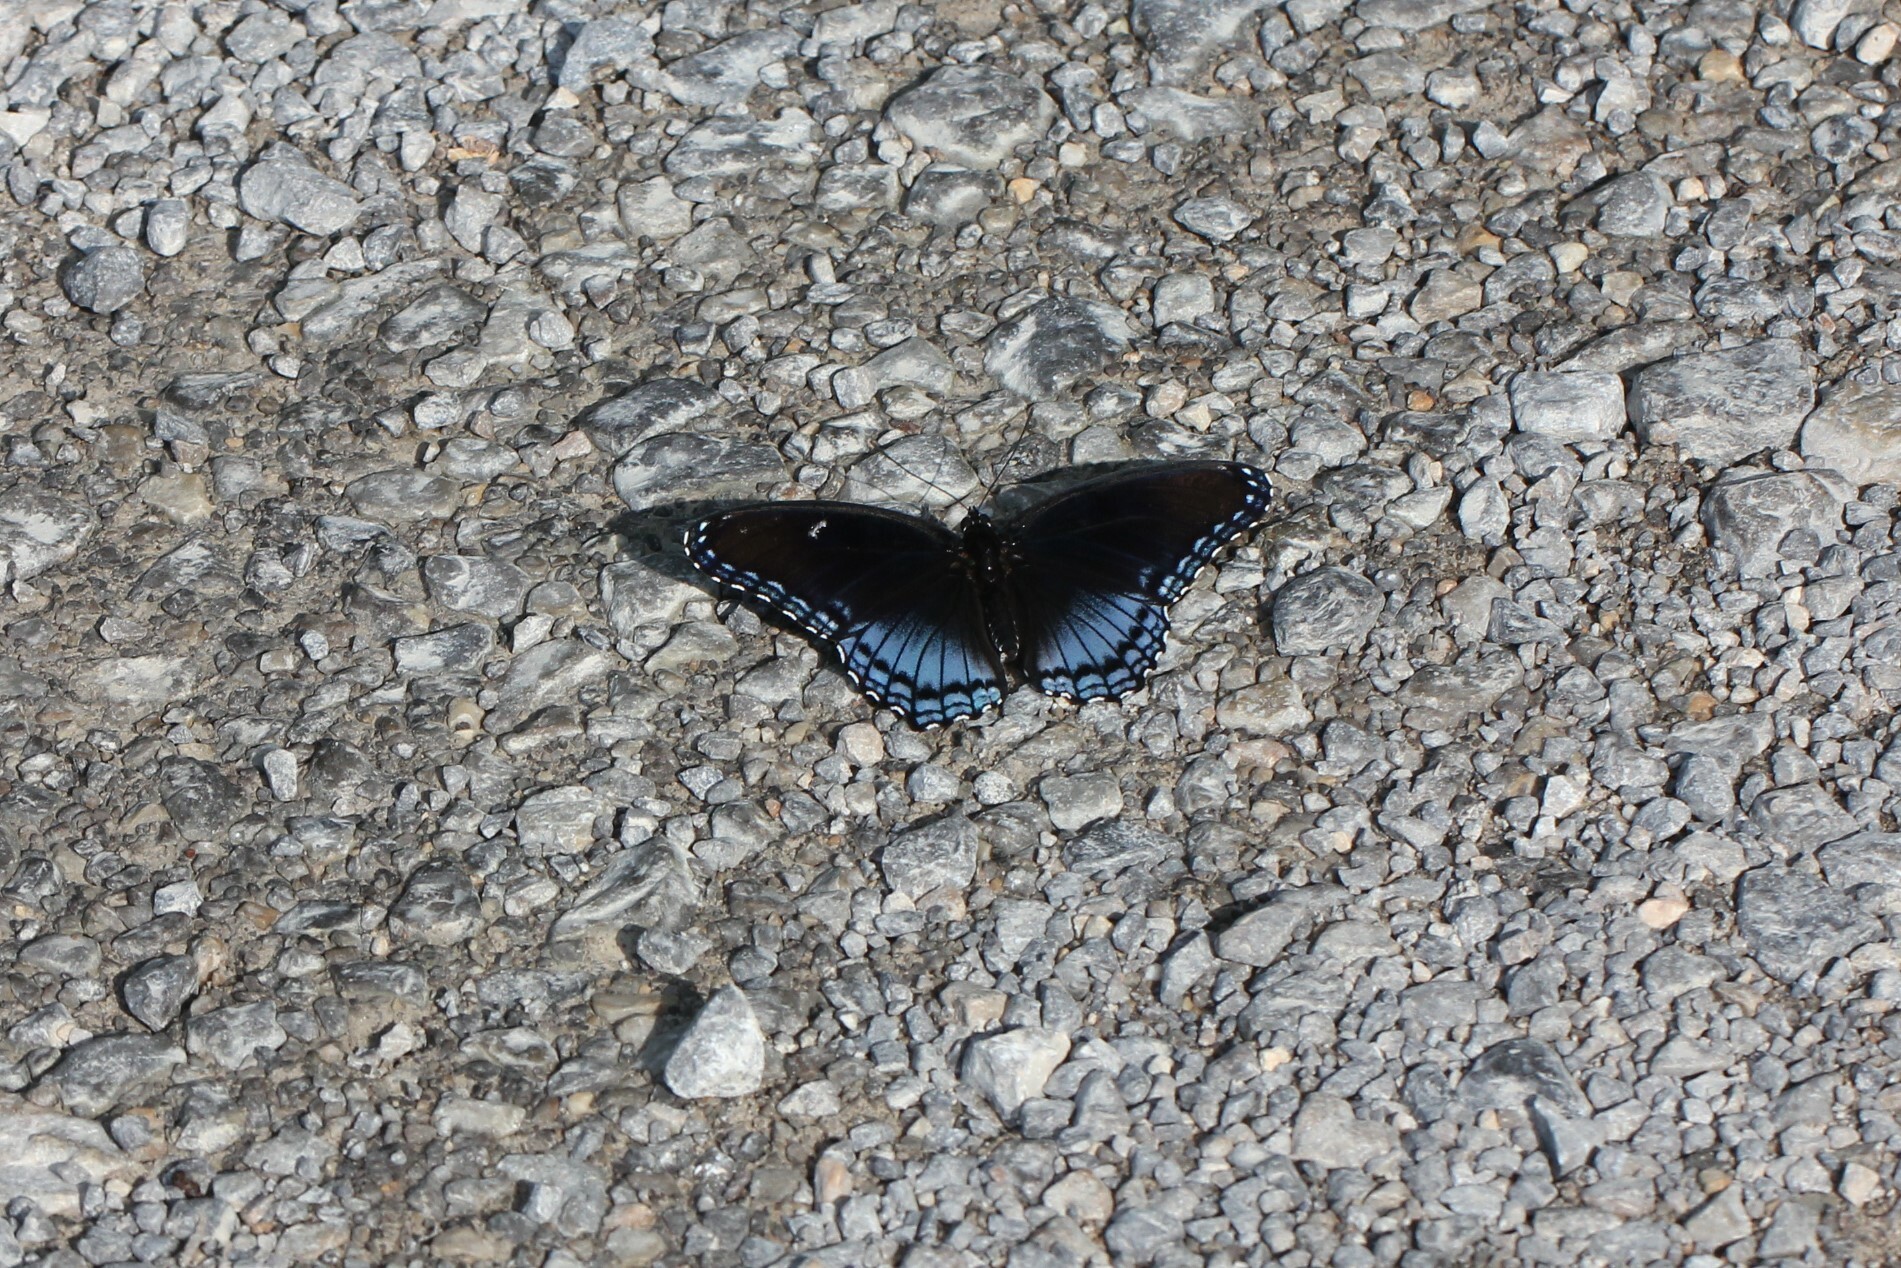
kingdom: Animalia
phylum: Arthropoda
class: Insecta
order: Lepidoptera
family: Nymphalidae
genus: Limenitis
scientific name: Limenitis astyanax
